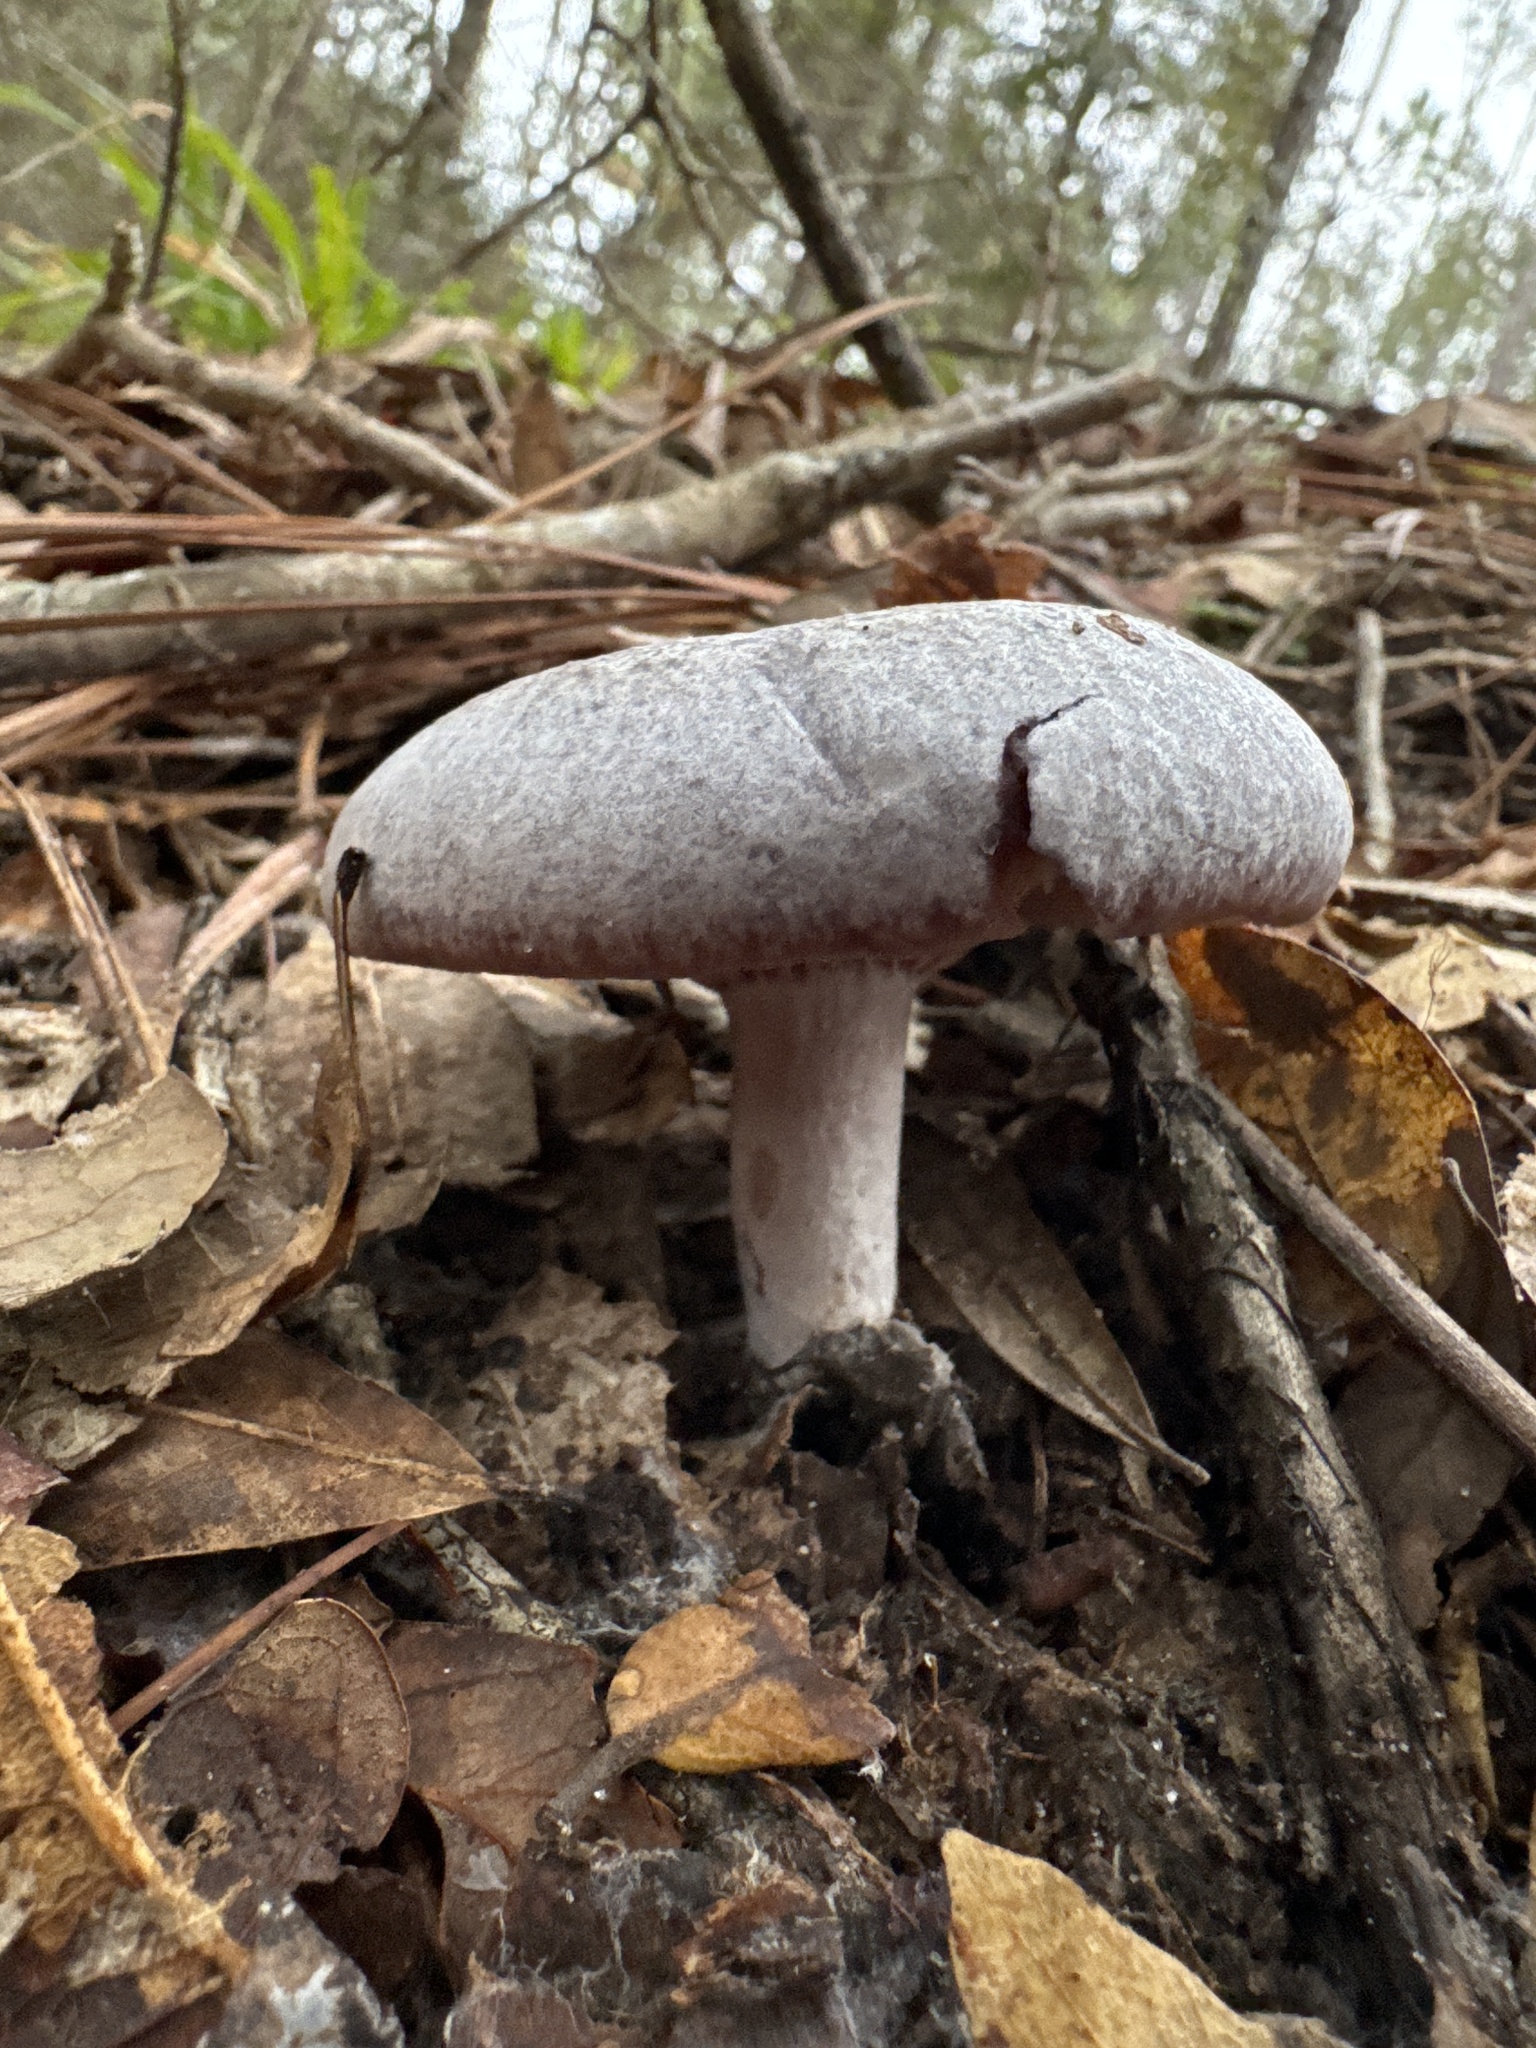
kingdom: Fungi
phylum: Basidiomycota
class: Agaricomycetes
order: Russulales
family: Russulaceae
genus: Lactarius
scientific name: Lactarius paradoxus
